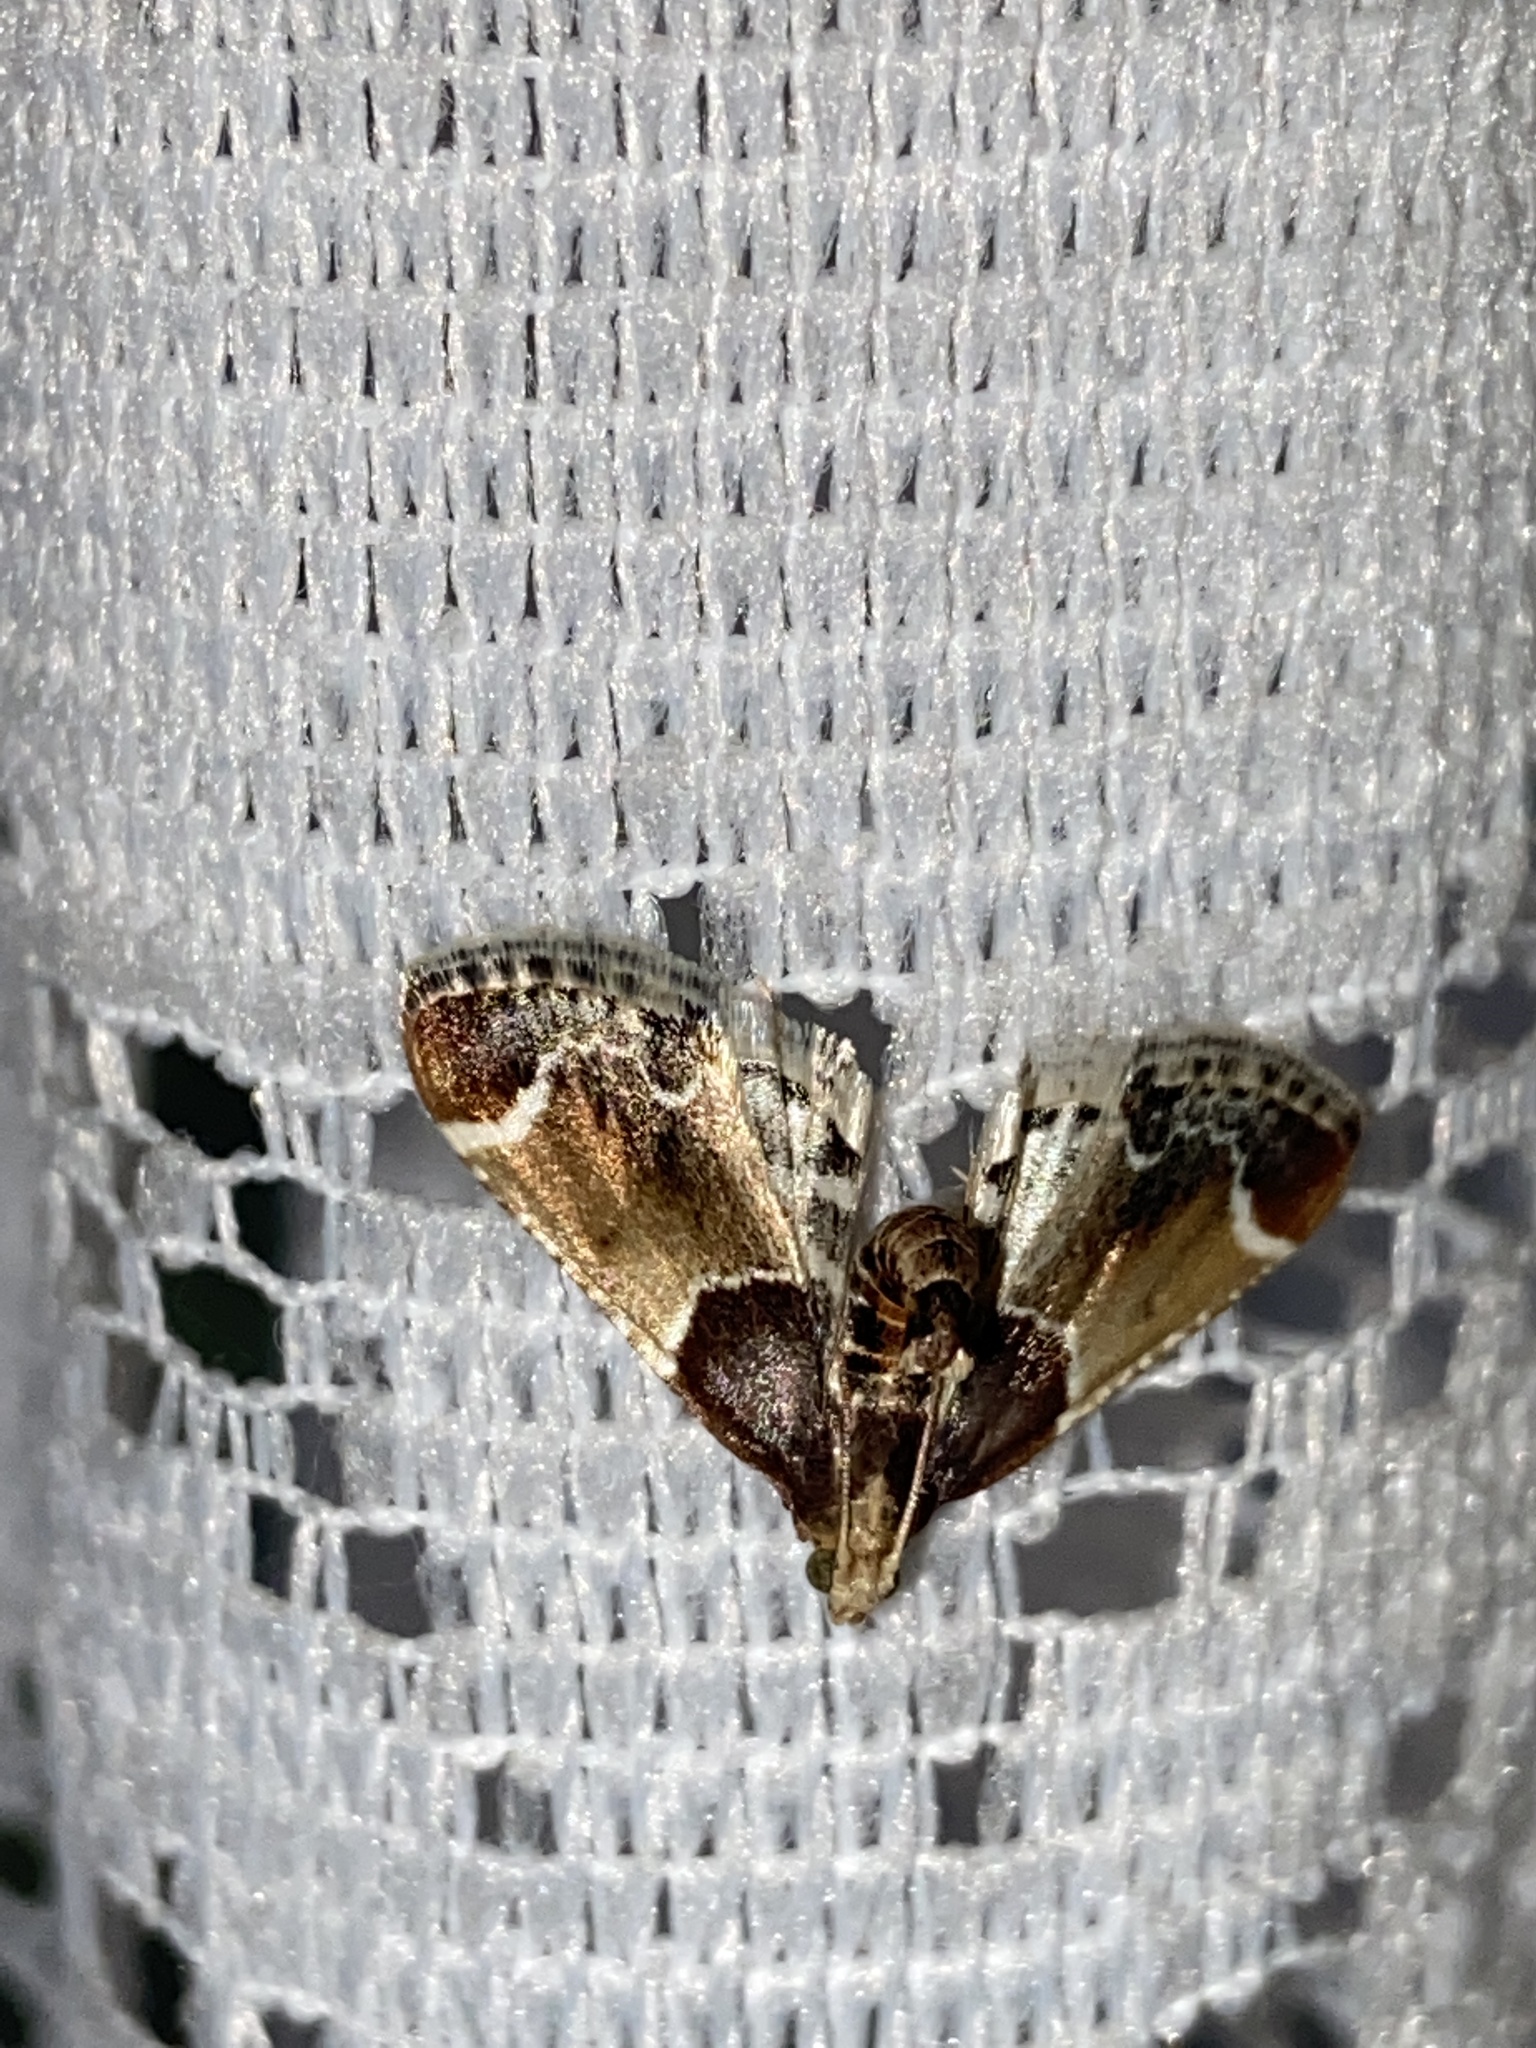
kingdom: Animalia
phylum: Arthropoda
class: Insecta
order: Lepidoptera
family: Pyralidae
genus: Pyralis
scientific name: Pyralis farinalis
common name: Meal moth
